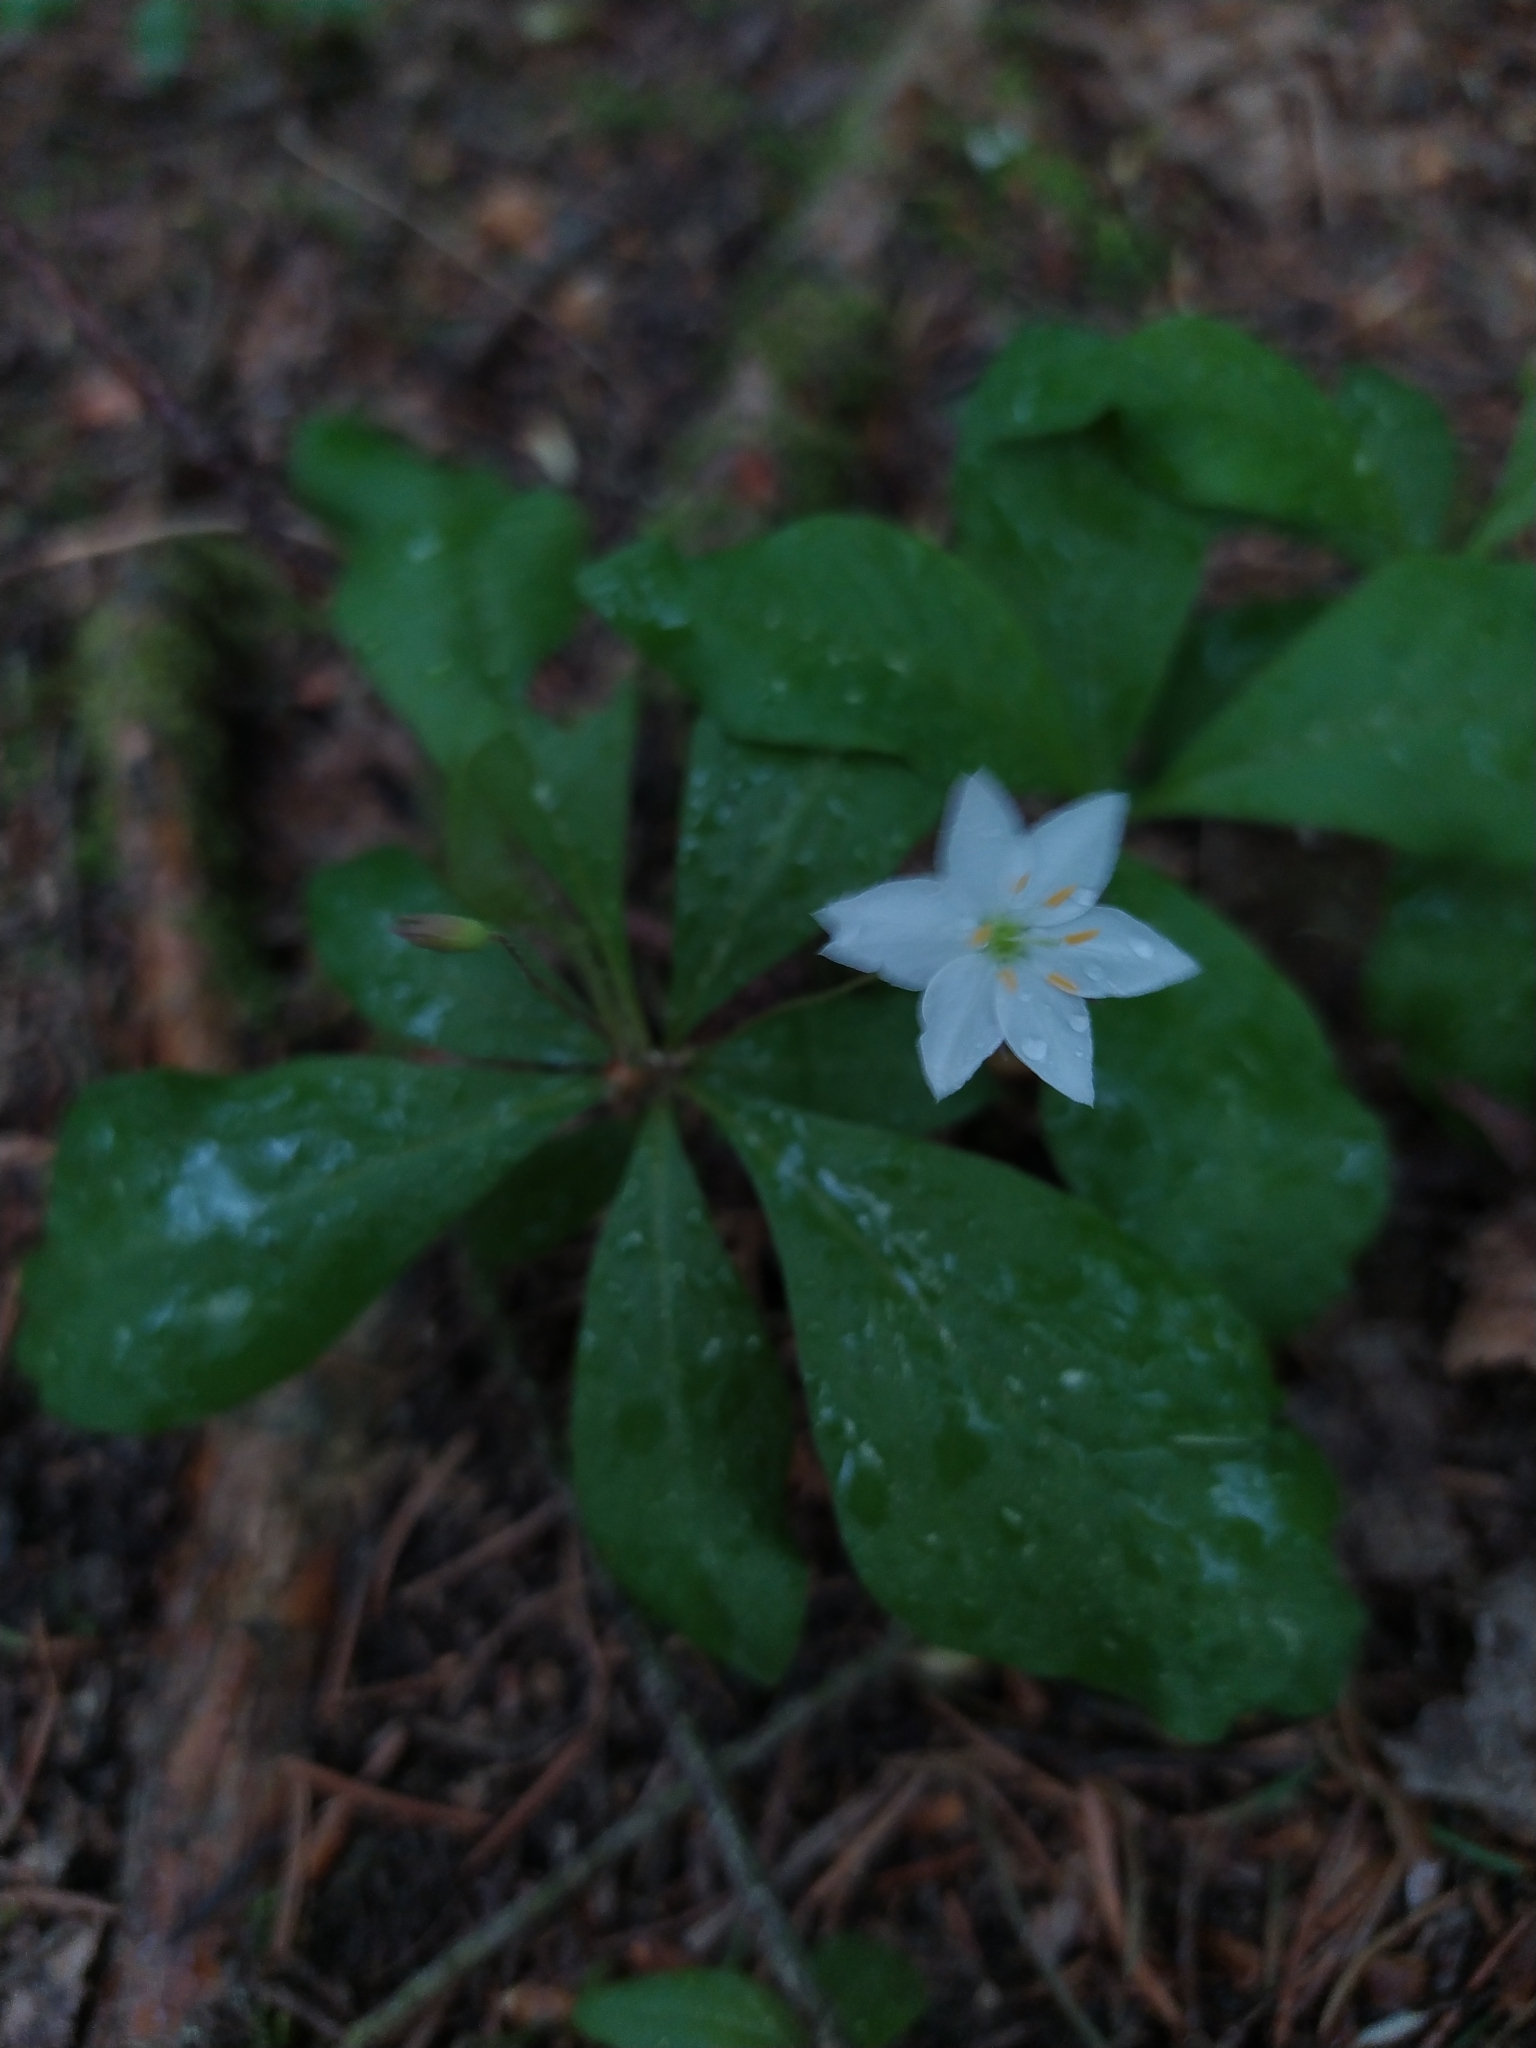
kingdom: Plantae
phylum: Tracheophyta
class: Magnoliopsida
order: Ericales
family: Primulaceae
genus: Lysimachia
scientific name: Lysimachia europaea
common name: Arctic starflower
